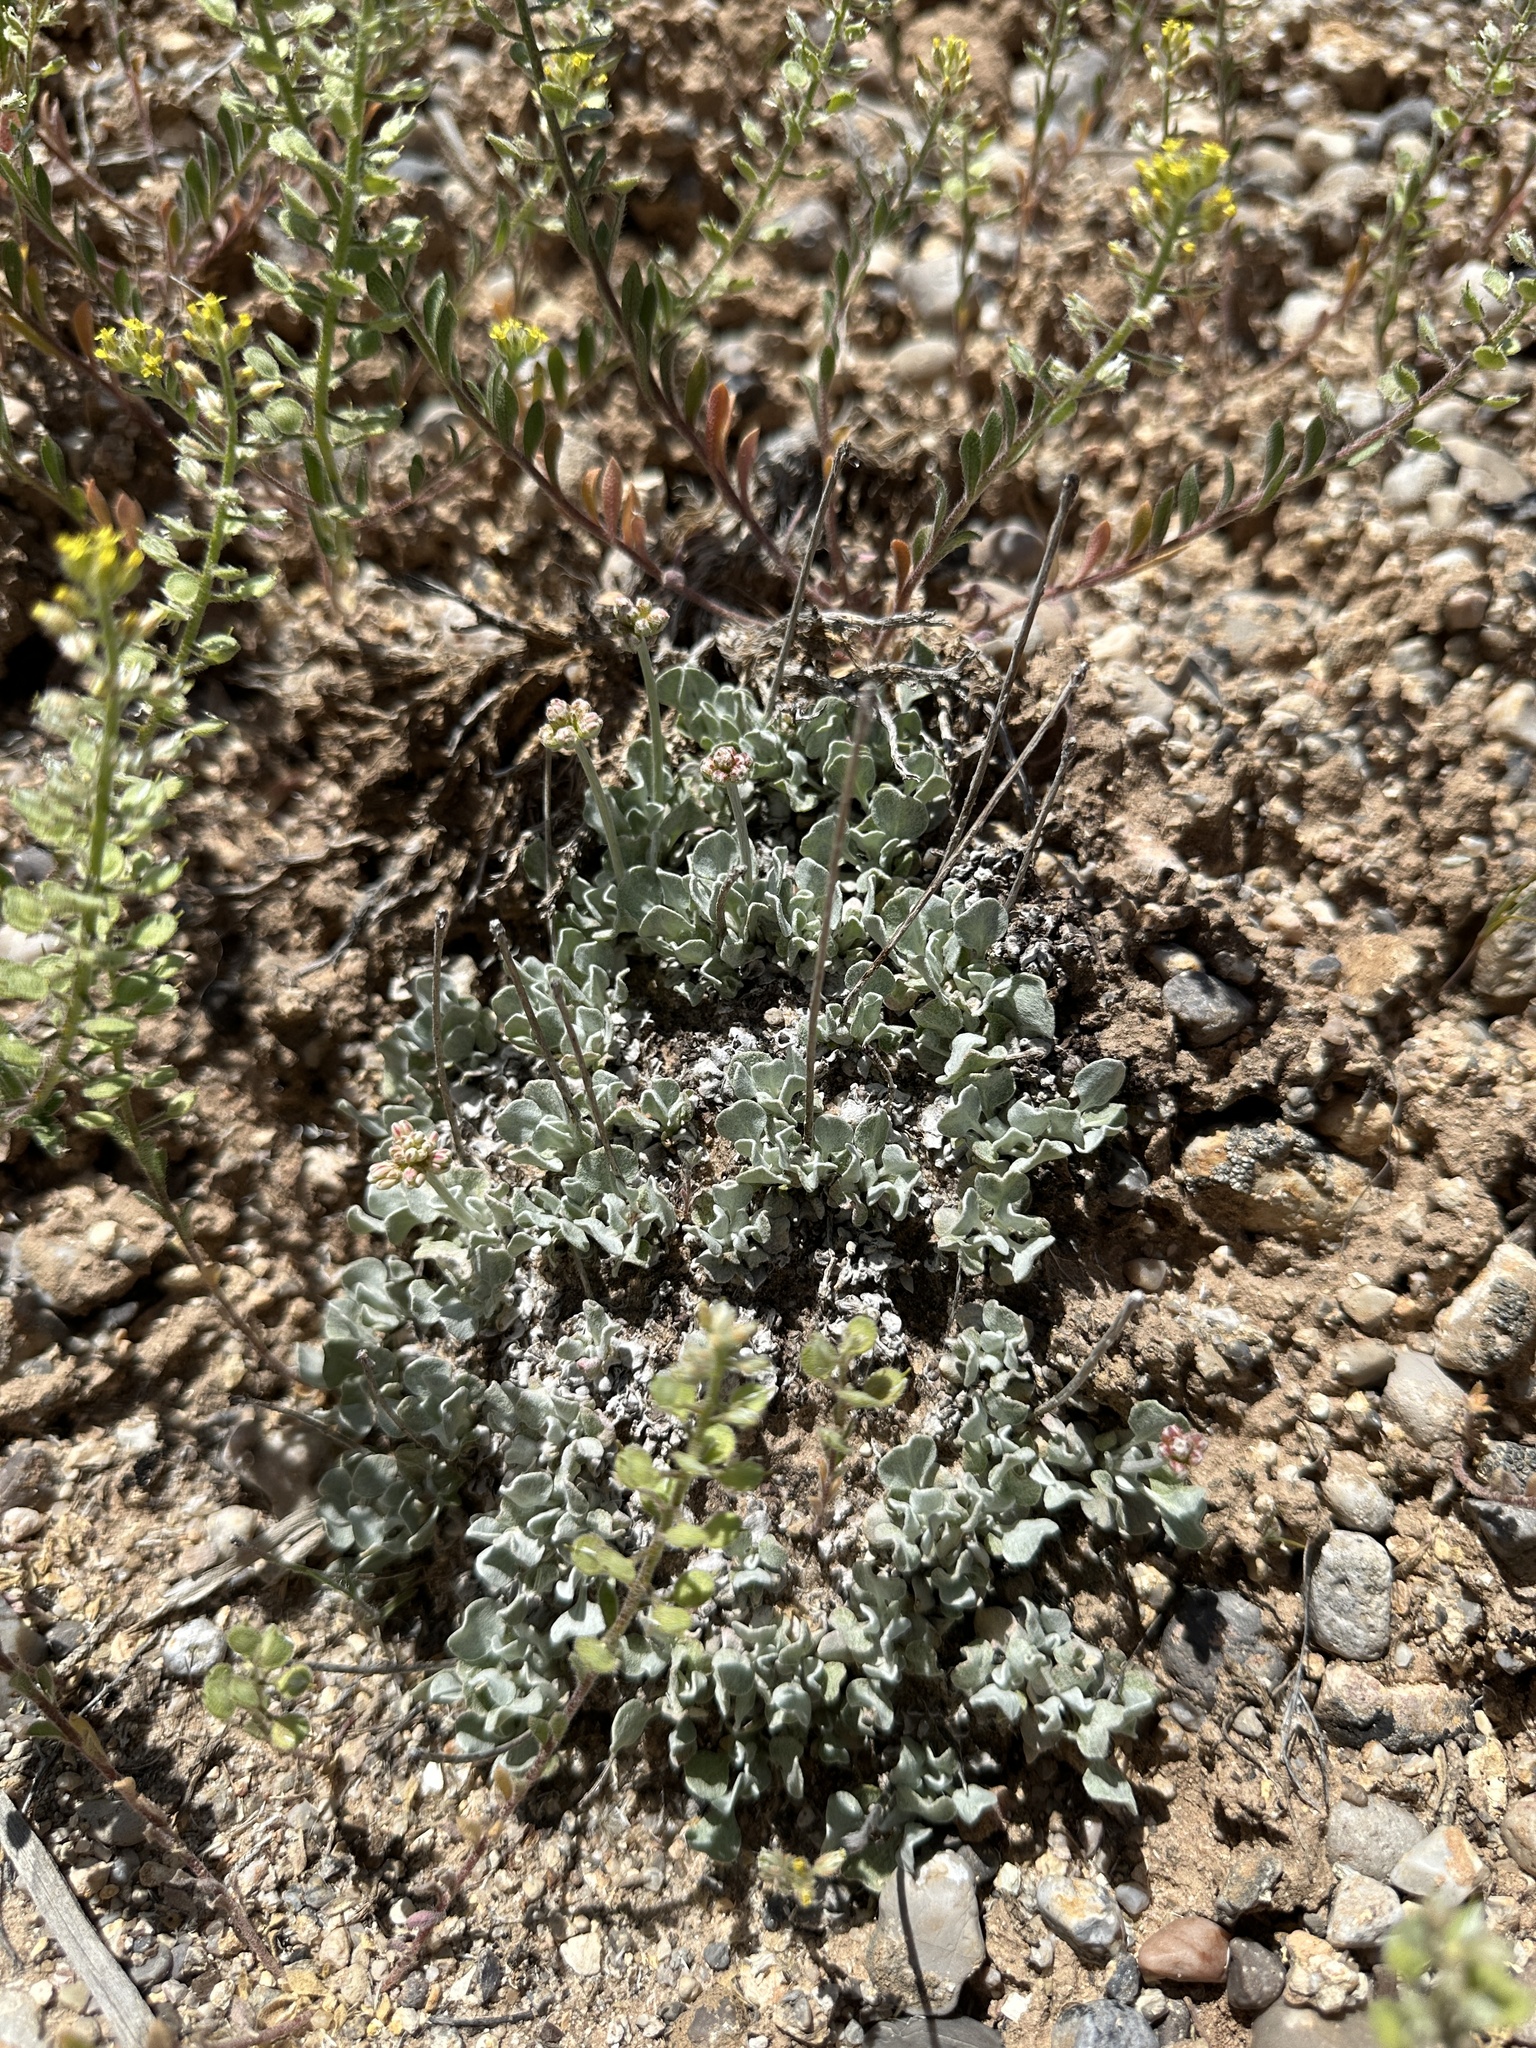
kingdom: Plantae
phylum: Tracheophyta
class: Magnoliopsida
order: Caryophyllales
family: Polygonaceae
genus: Eriogonum
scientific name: Eriogonum ovalifolium
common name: Cushion buckwheat
